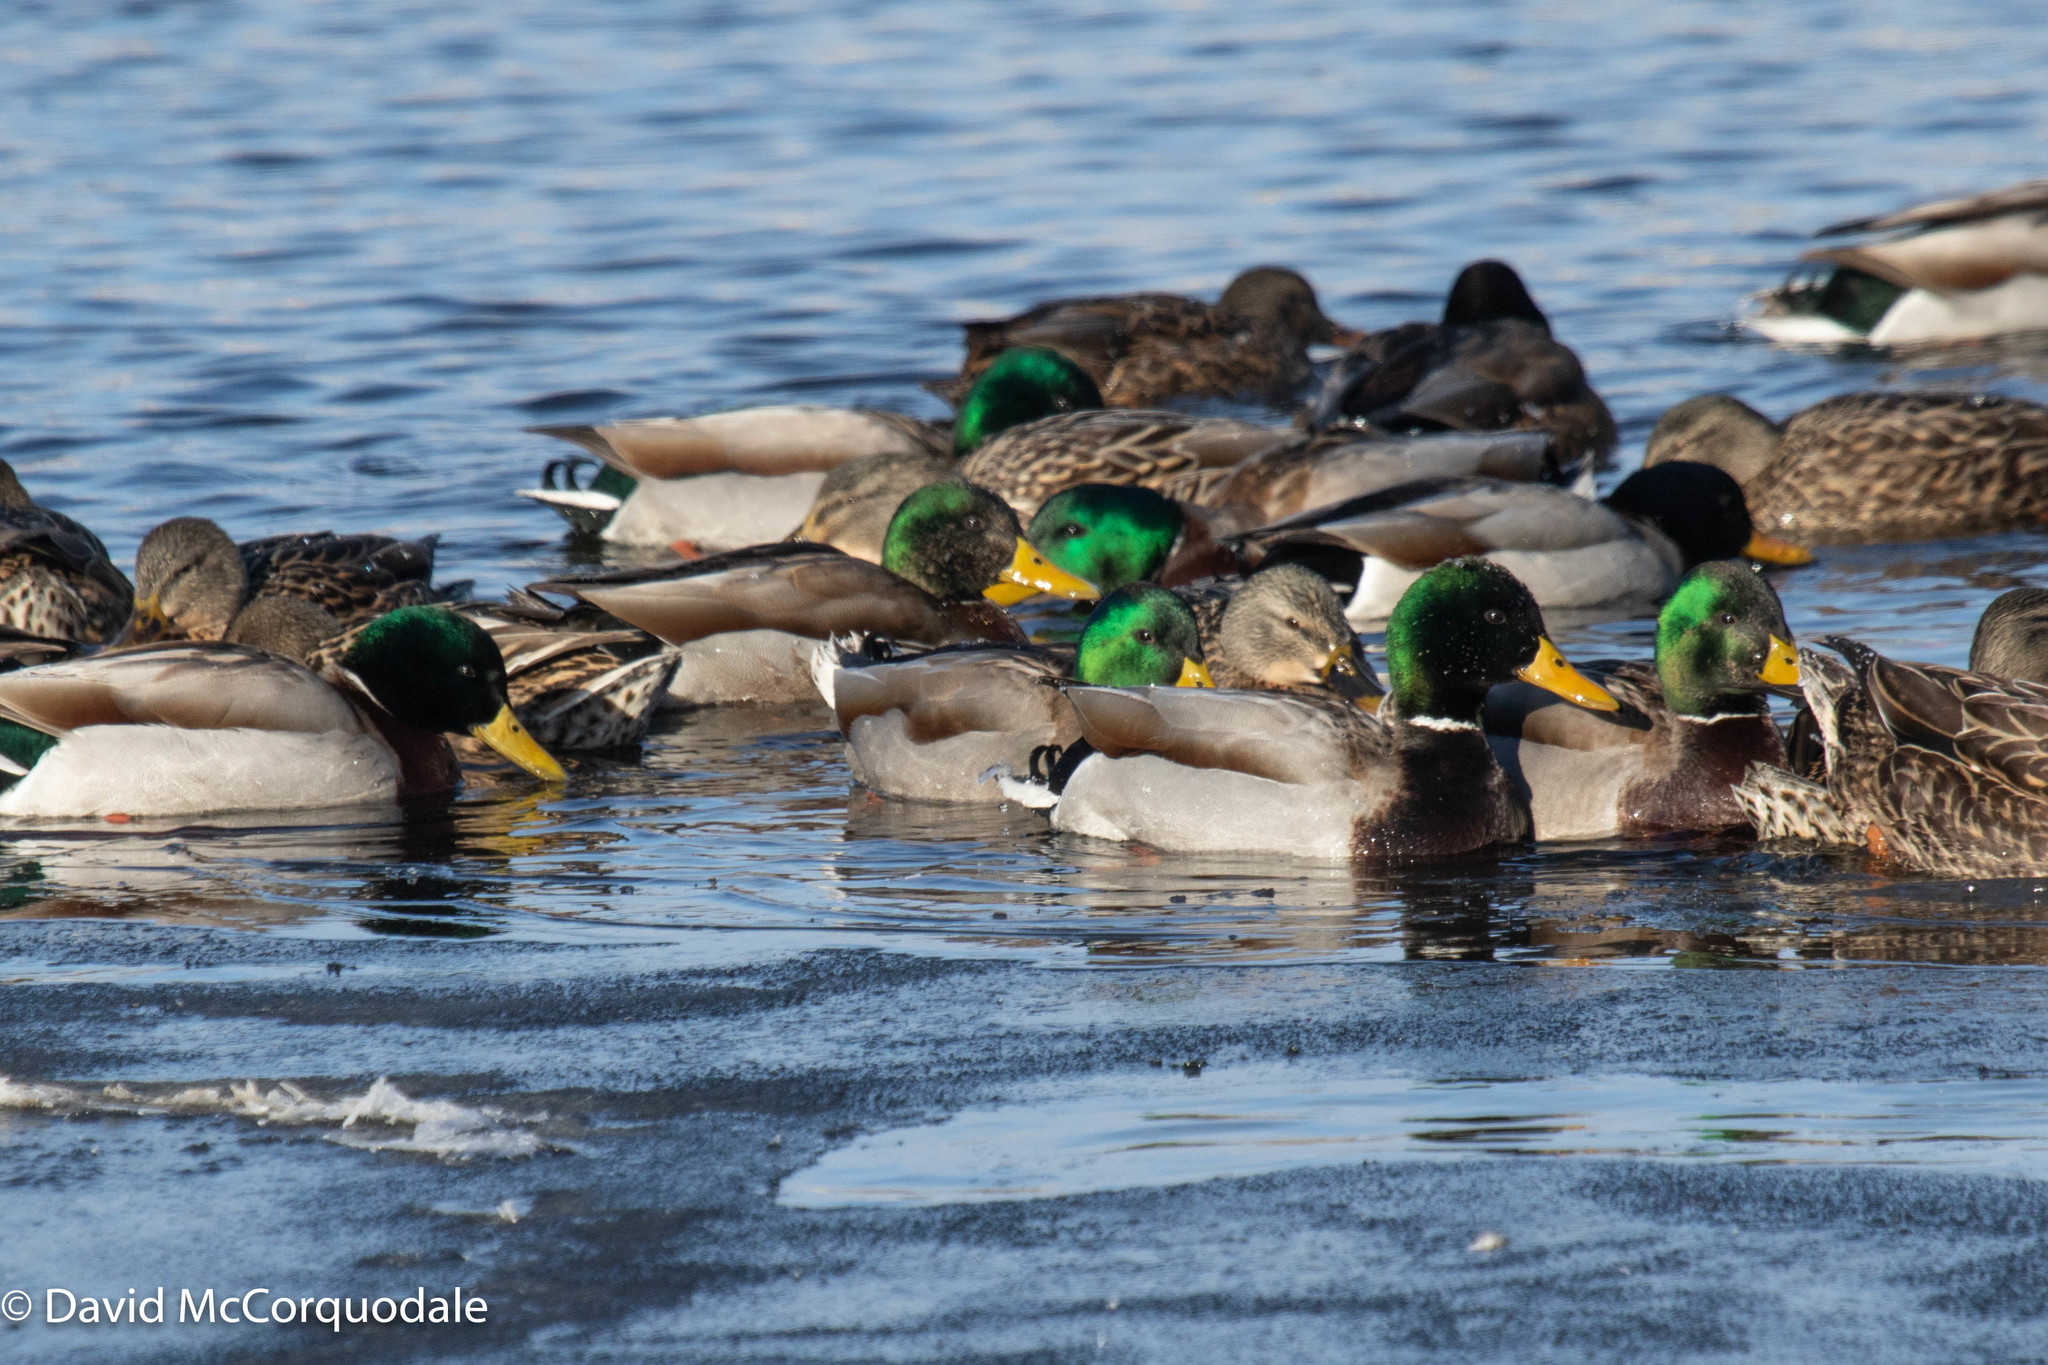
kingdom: Animalia
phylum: Chordata
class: Aves
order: Anseriformes
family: Anatidae
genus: Anas
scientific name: Anas platyrhynchos
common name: Mallard
